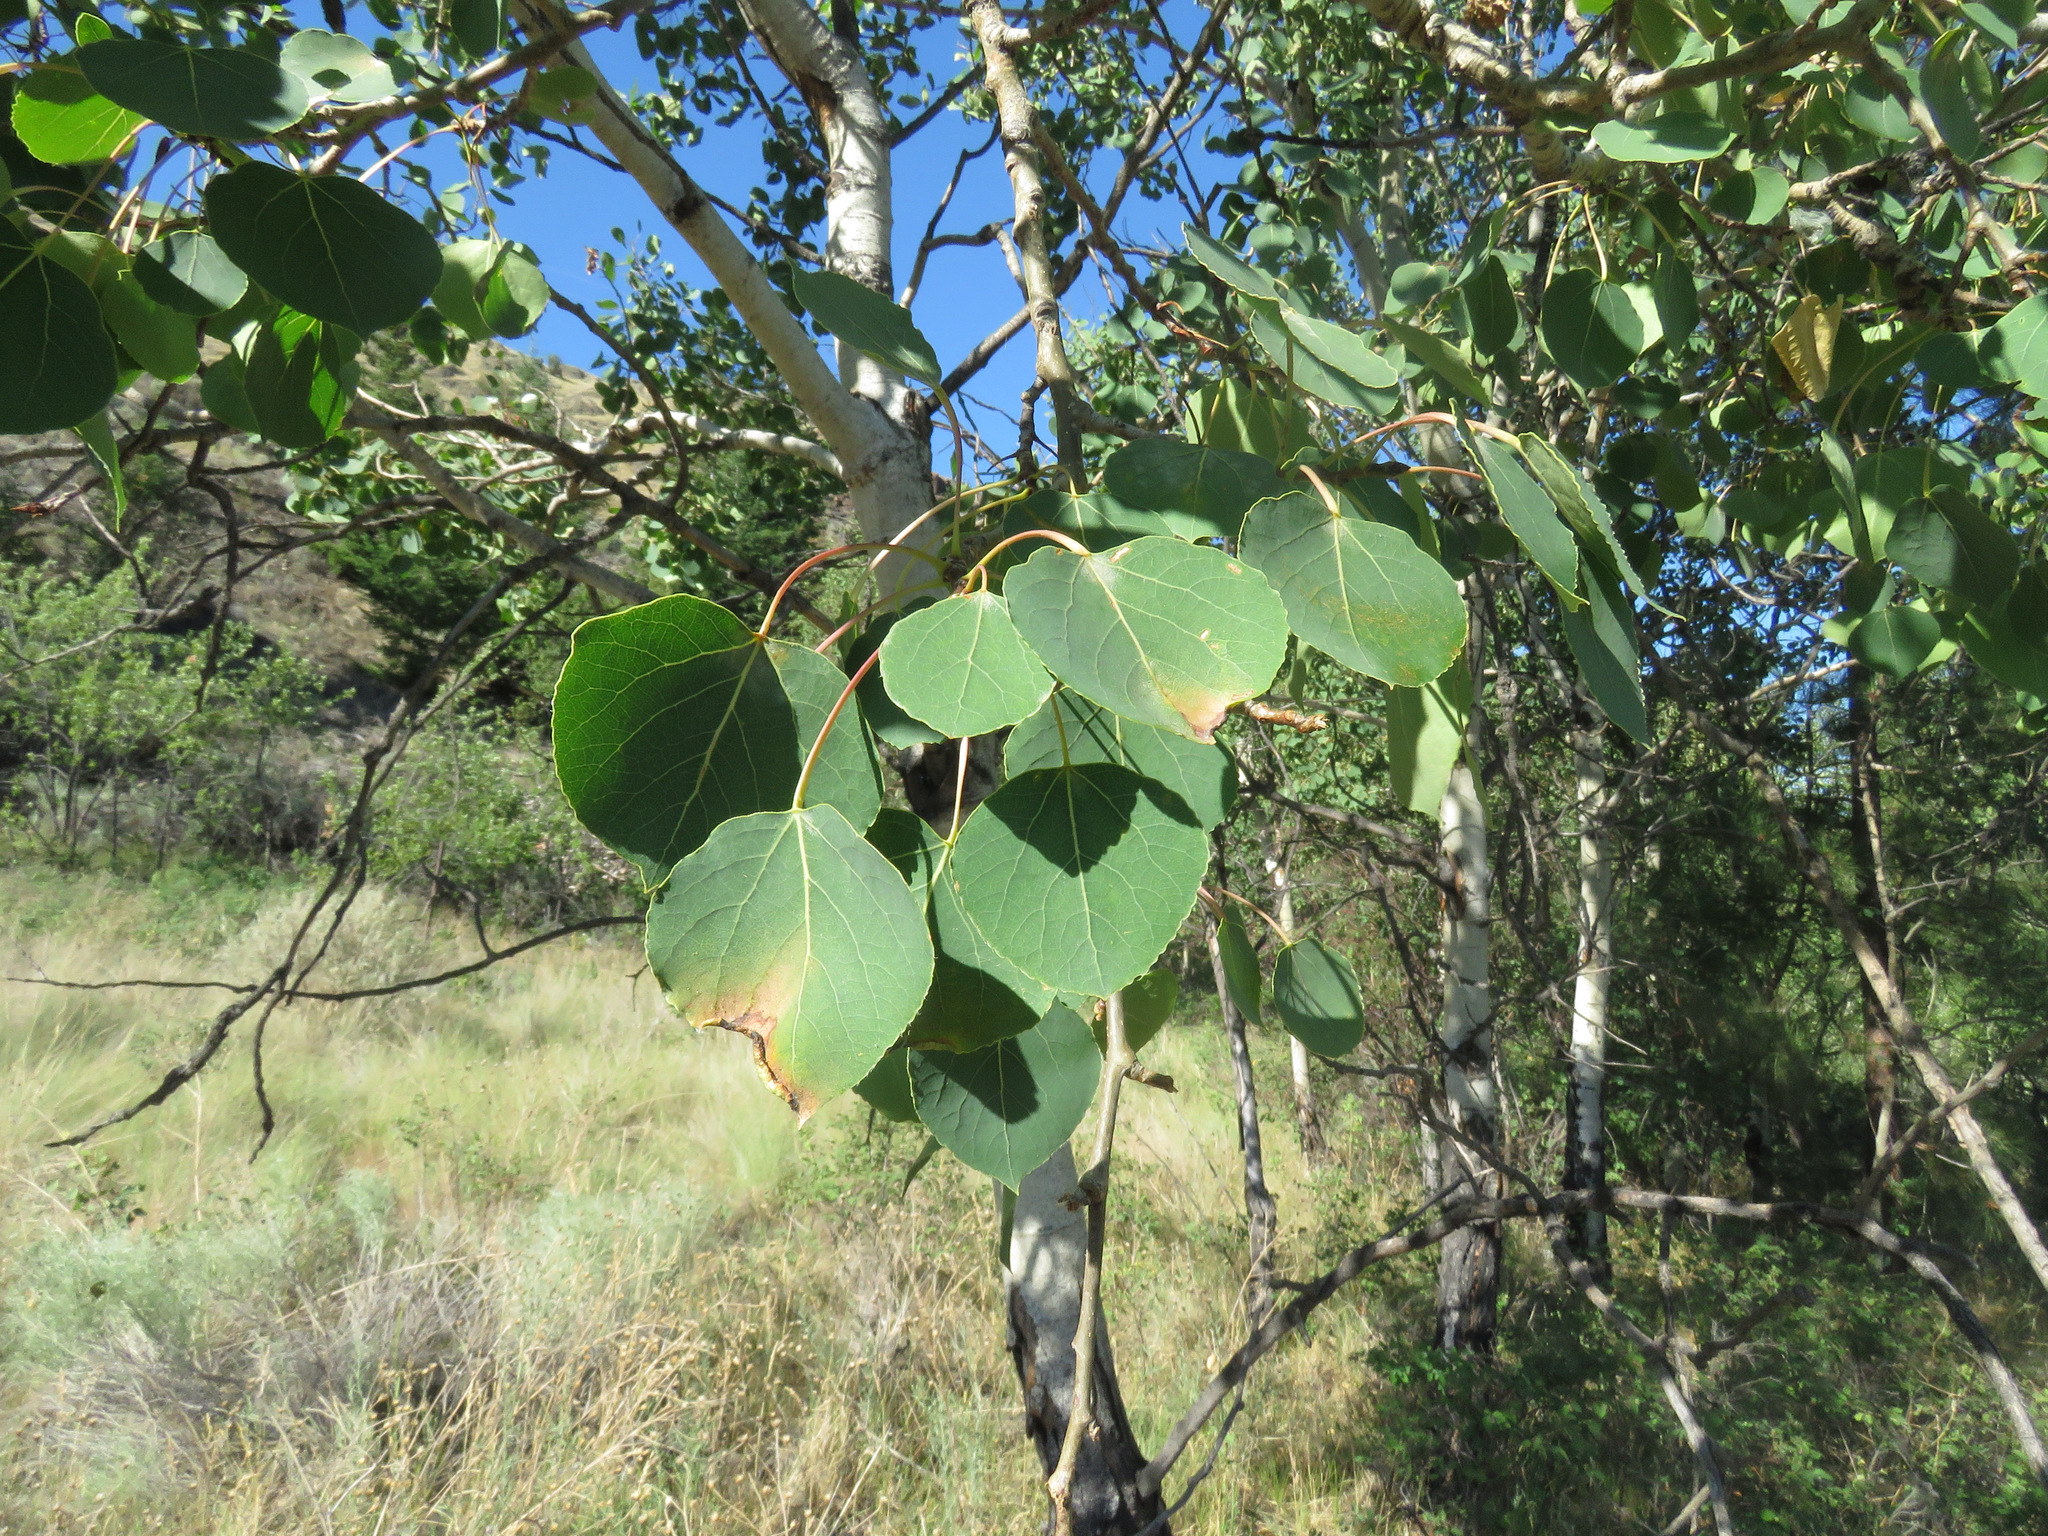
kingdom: Plantae
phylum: Tracheophyta
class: Magnoliopsida
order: Malpighiales
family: Salicaceae
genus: Populus
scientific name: Populus tremuloides
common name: Quaking aspen
